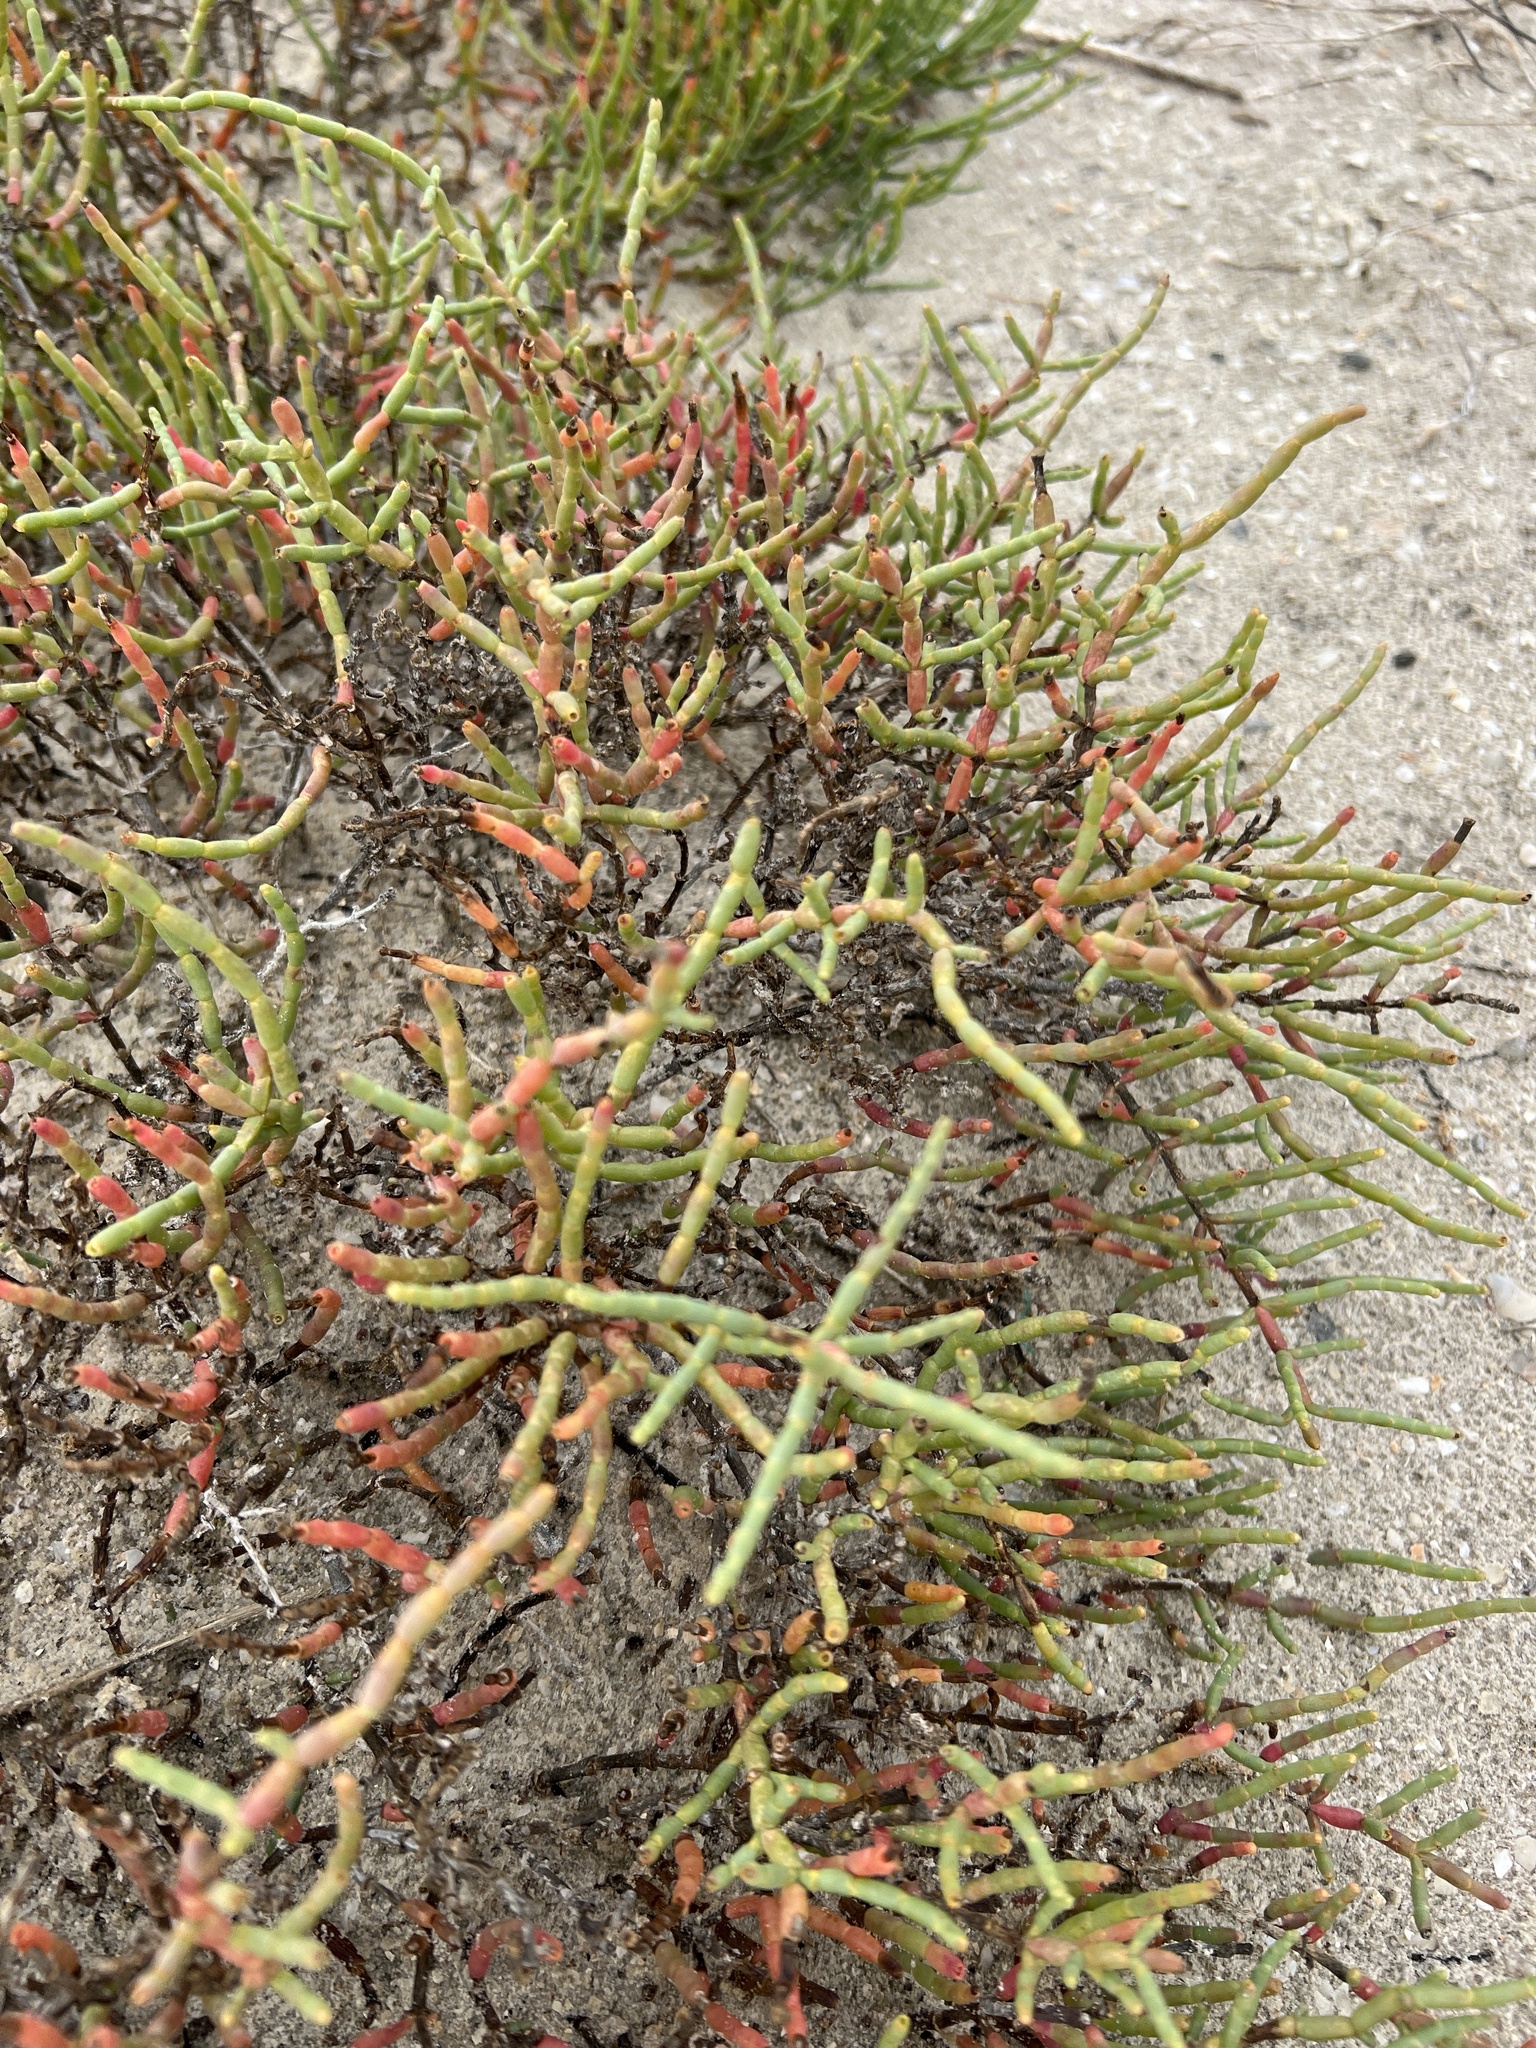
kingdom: Plantae
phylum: Tracheophyta
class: Magnoliopsida
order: Caryophyllales
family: Amaranthaceae
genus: Salicornia
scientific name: Salicornia virginica
